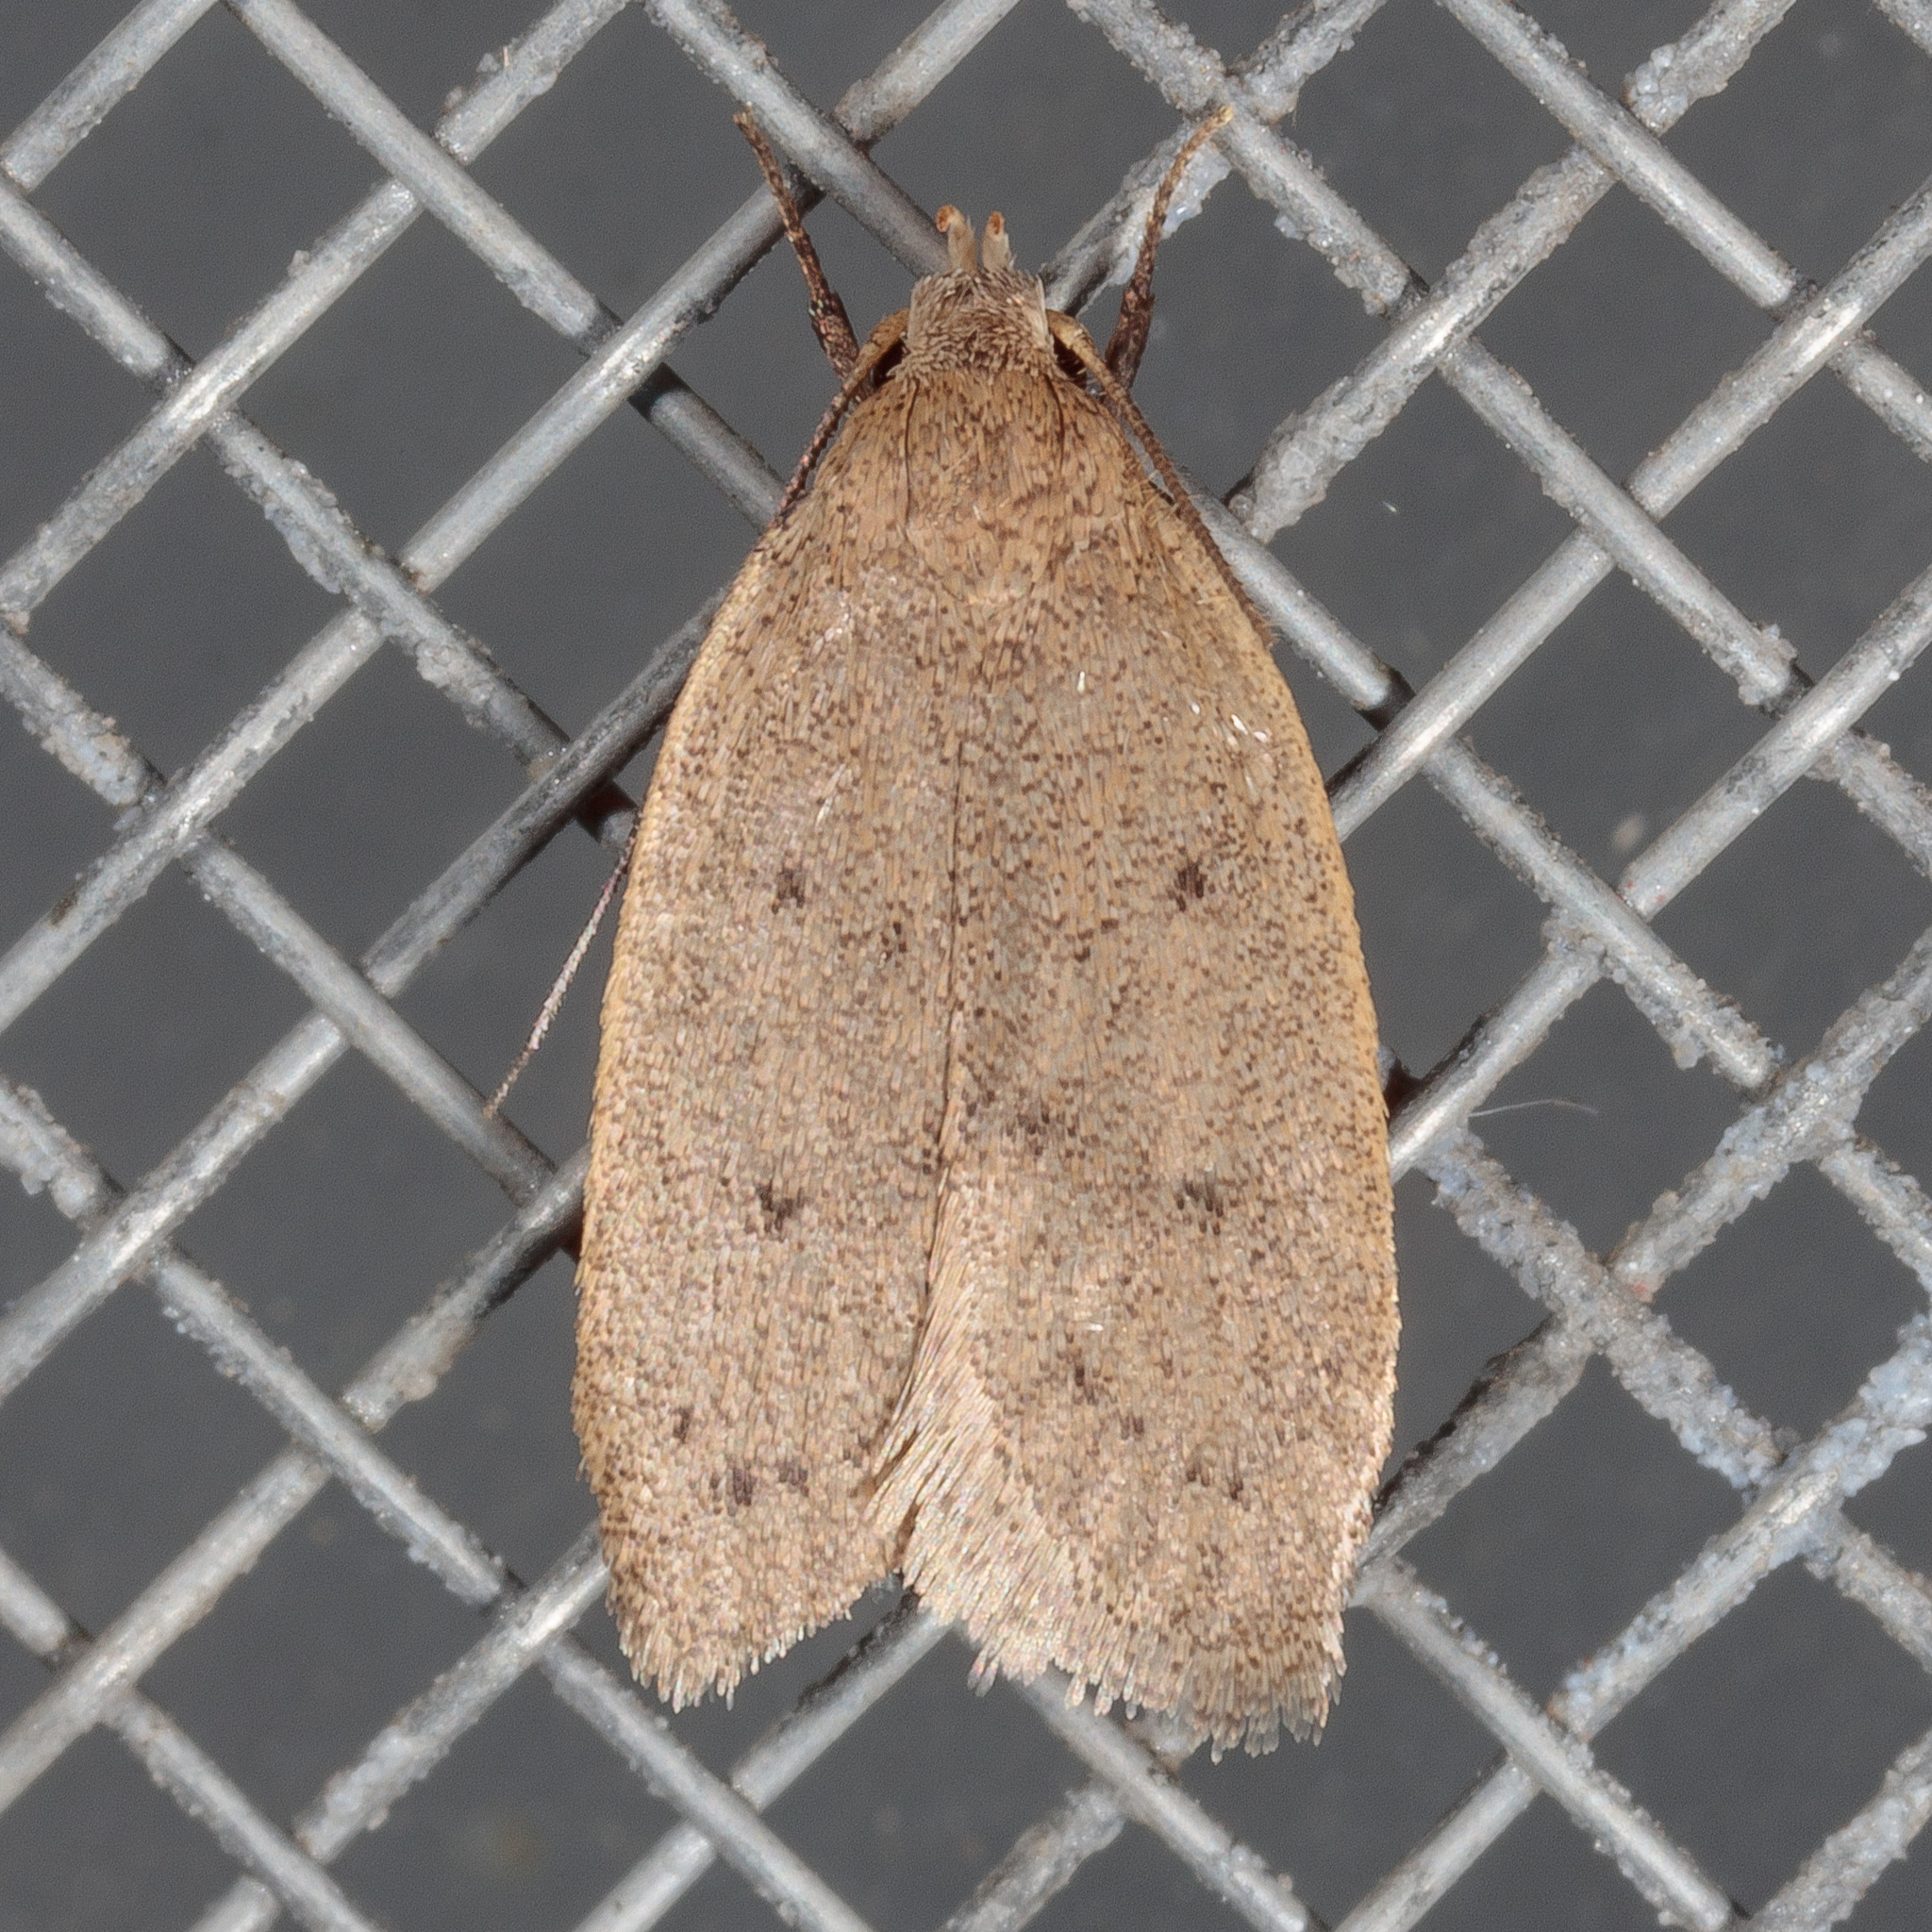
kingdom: Animalia
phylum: Arthropoda
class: Insecta
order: Lepidoptera
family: Oecophoridae
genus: Inga
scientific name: Inga obscuromaculella
